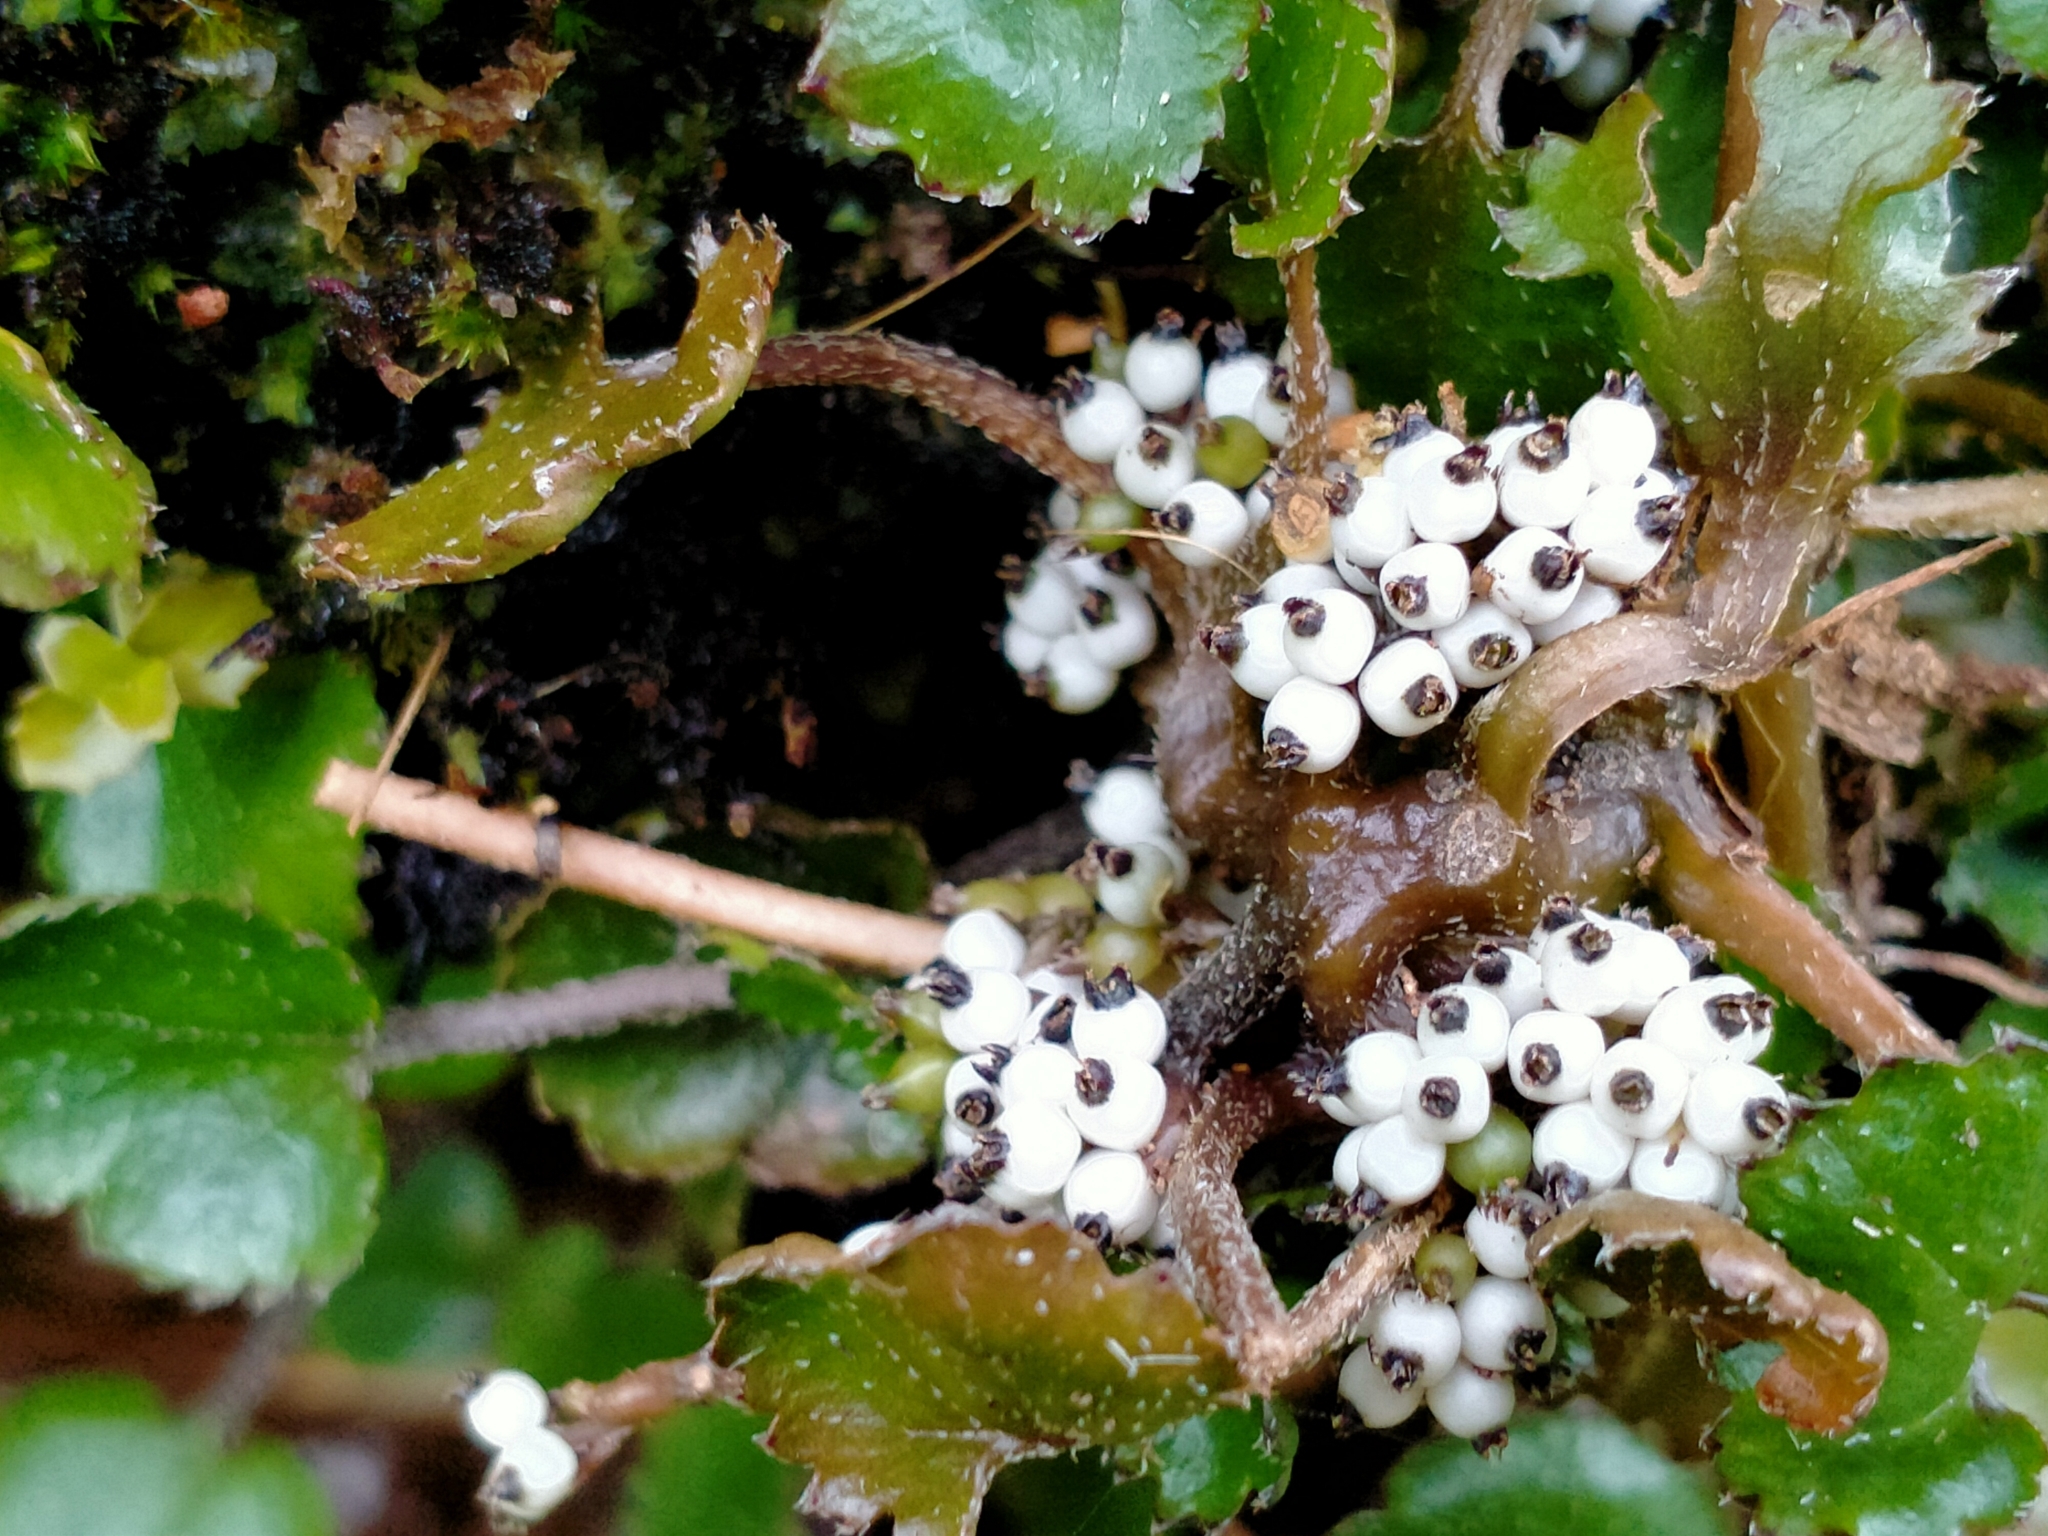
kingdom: Plantae
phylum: Tracheophyta
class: Magnoliopsida
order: Gunnerales
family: Gunneraceae
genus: Gunnera
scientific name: Gunnera monoica
